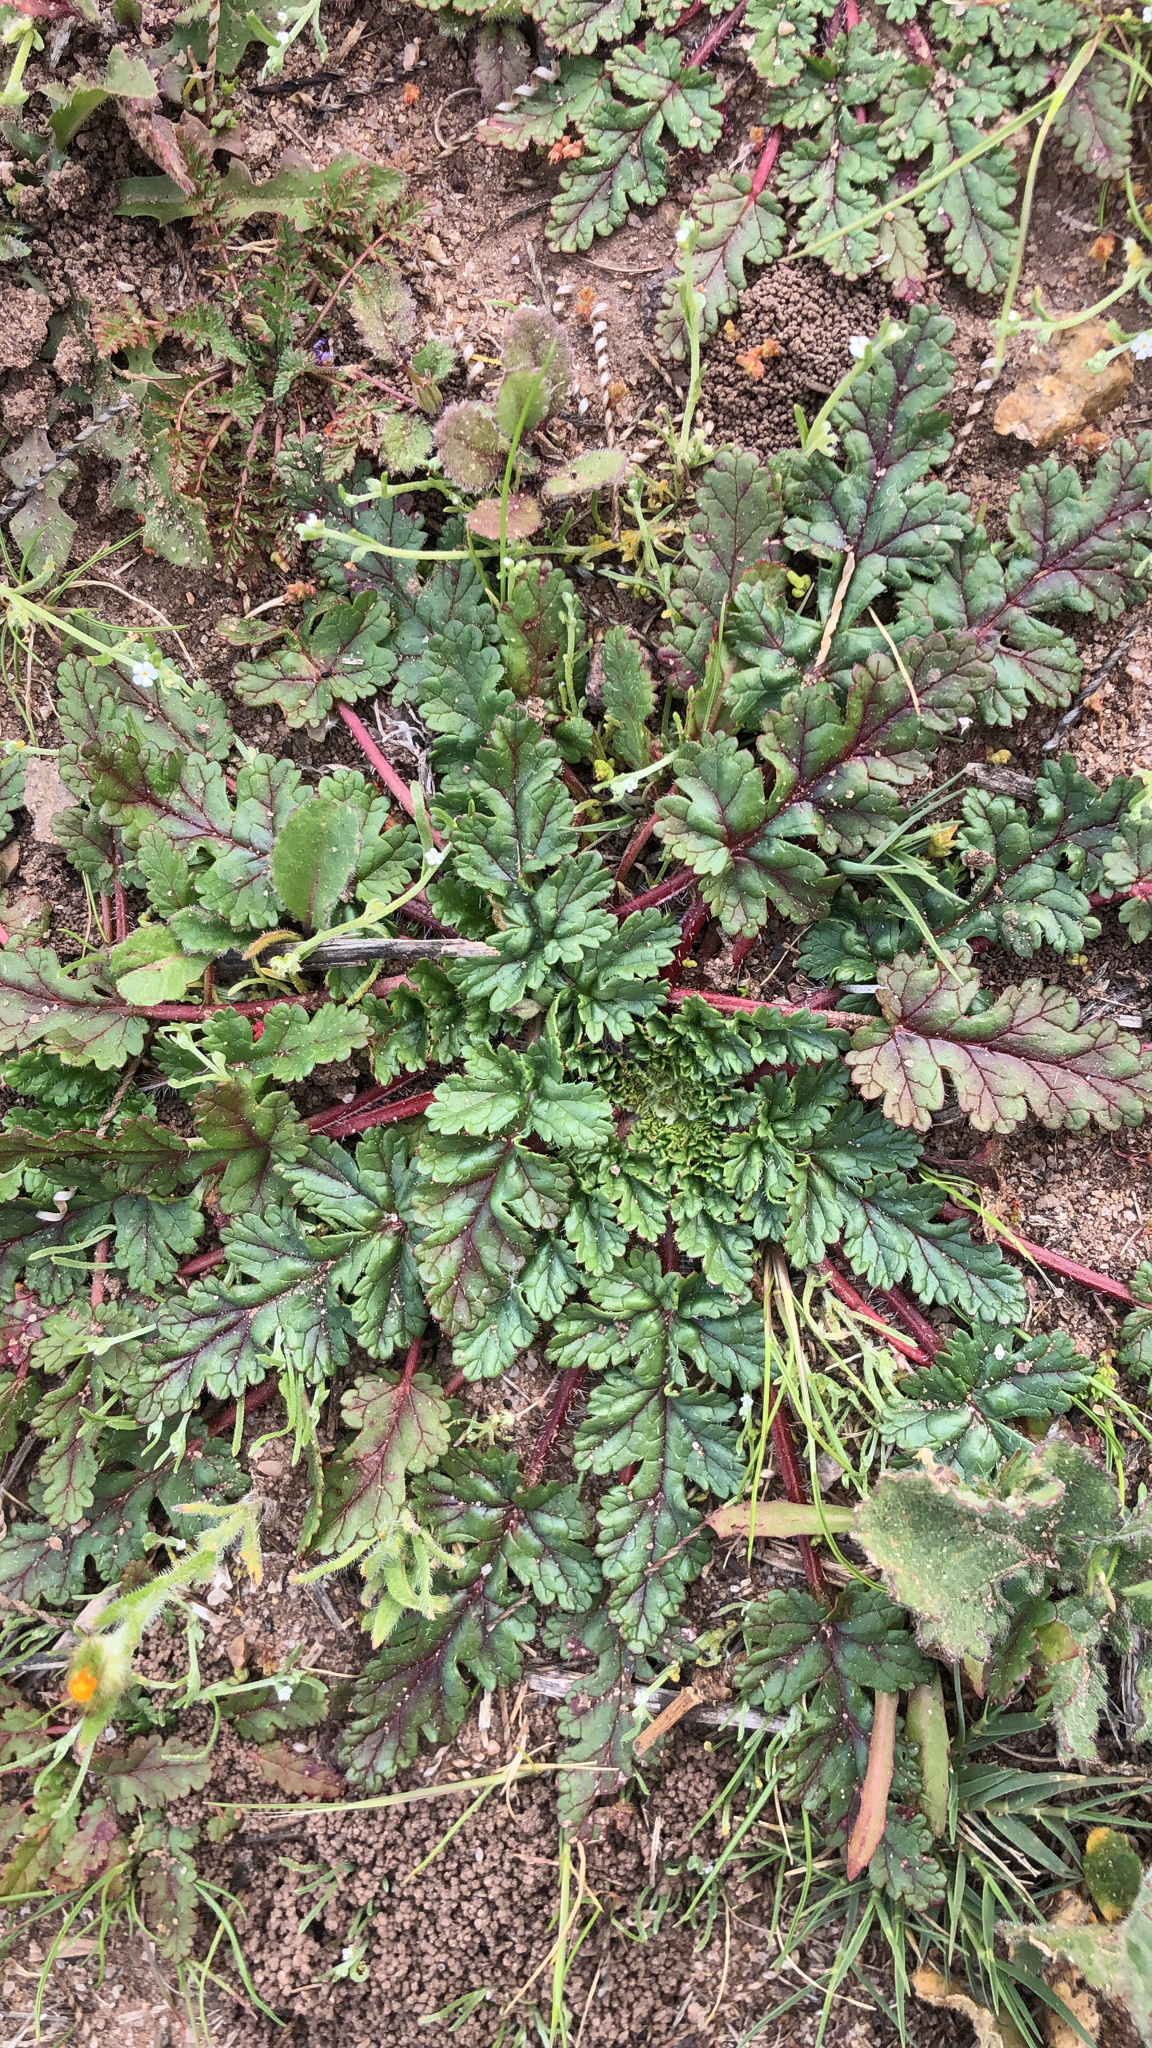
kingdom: Plantae
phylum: Tracheophyta
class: Magnoliopsida
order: Geraniales
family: Geraniaceae
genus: Erodium
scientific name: Erodium botrys
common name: Mediterranean stork's-bill
